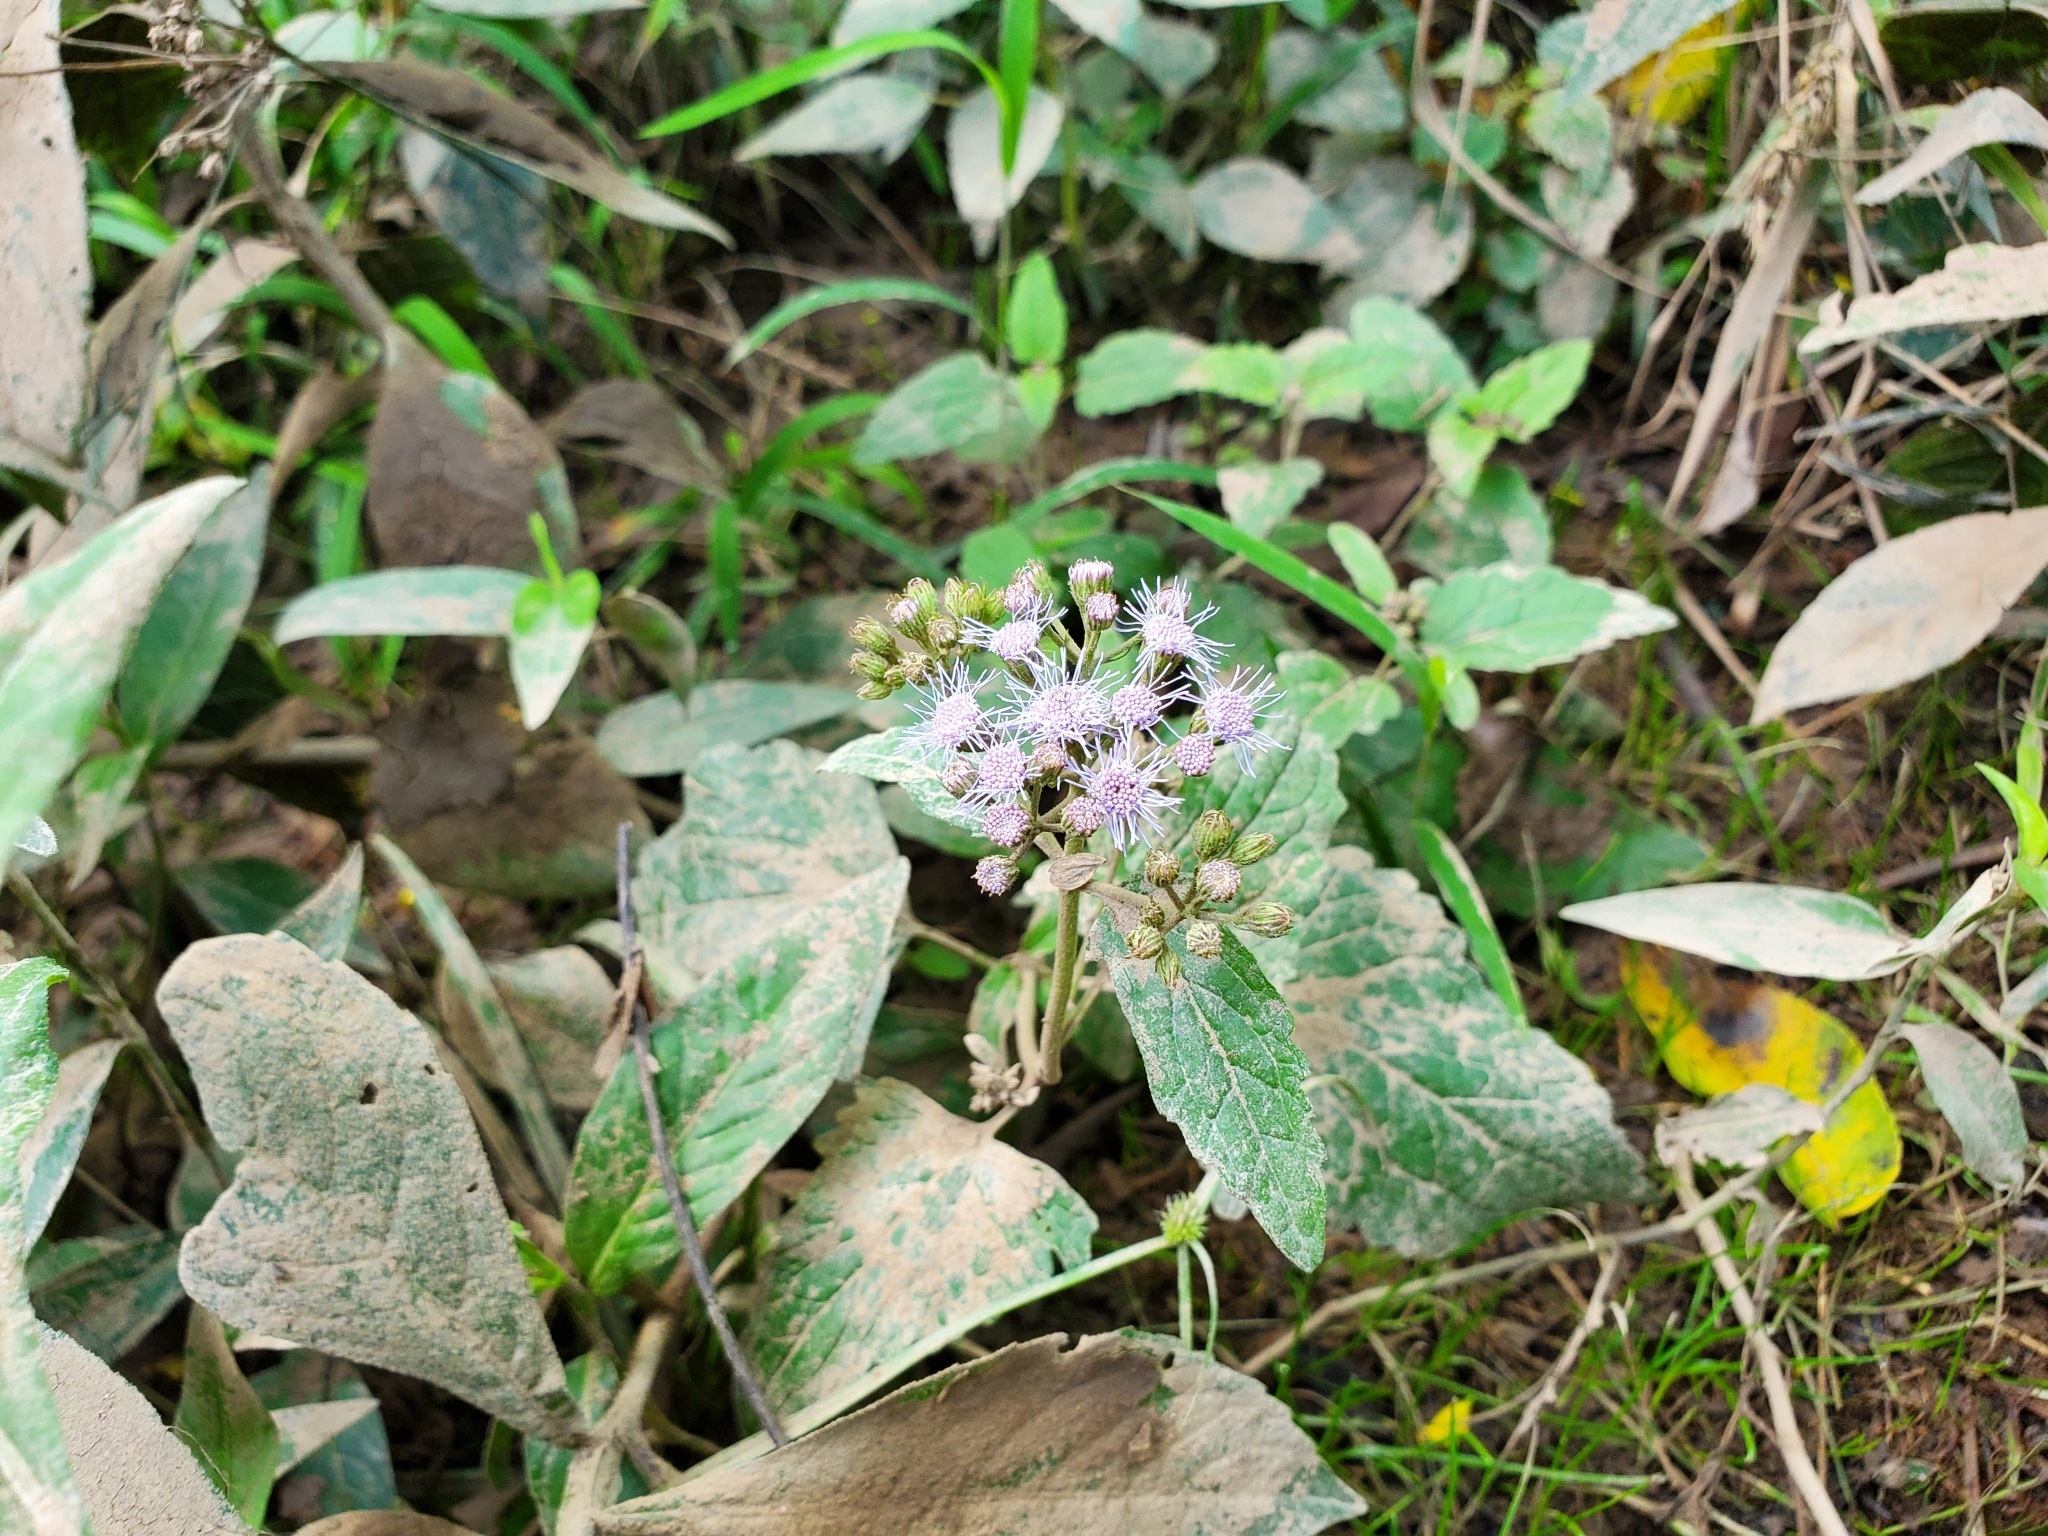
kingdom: Plantae
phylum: Tracheophyta
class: Magnoliopsida
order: Asterales
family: Asteraceae
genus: Conoclinium
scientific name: Conoclinium coelestinum
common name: Blue mistflower
